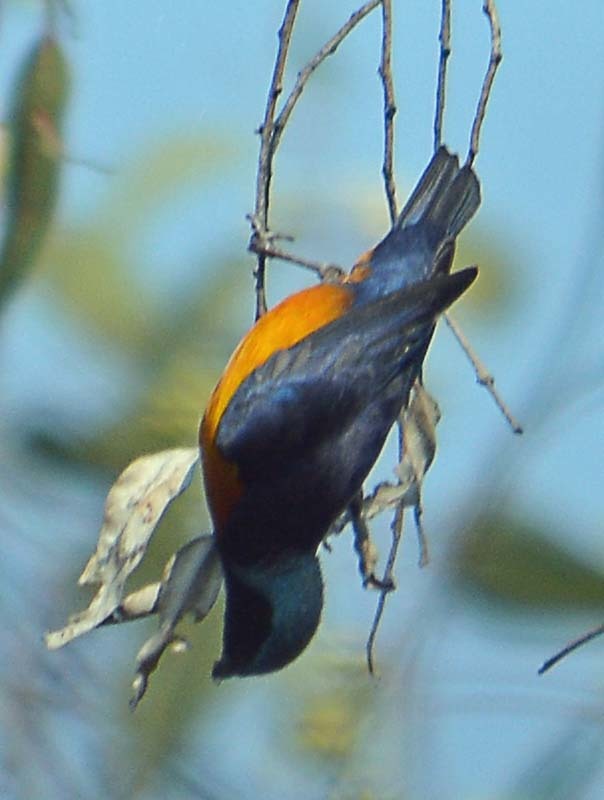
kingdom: Animalia
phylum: Chordata
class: Aves
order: Passeriformes
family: Fringillidae
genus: Euphonia
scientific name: Euphonia elegantissima
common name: Elegant euphonia
